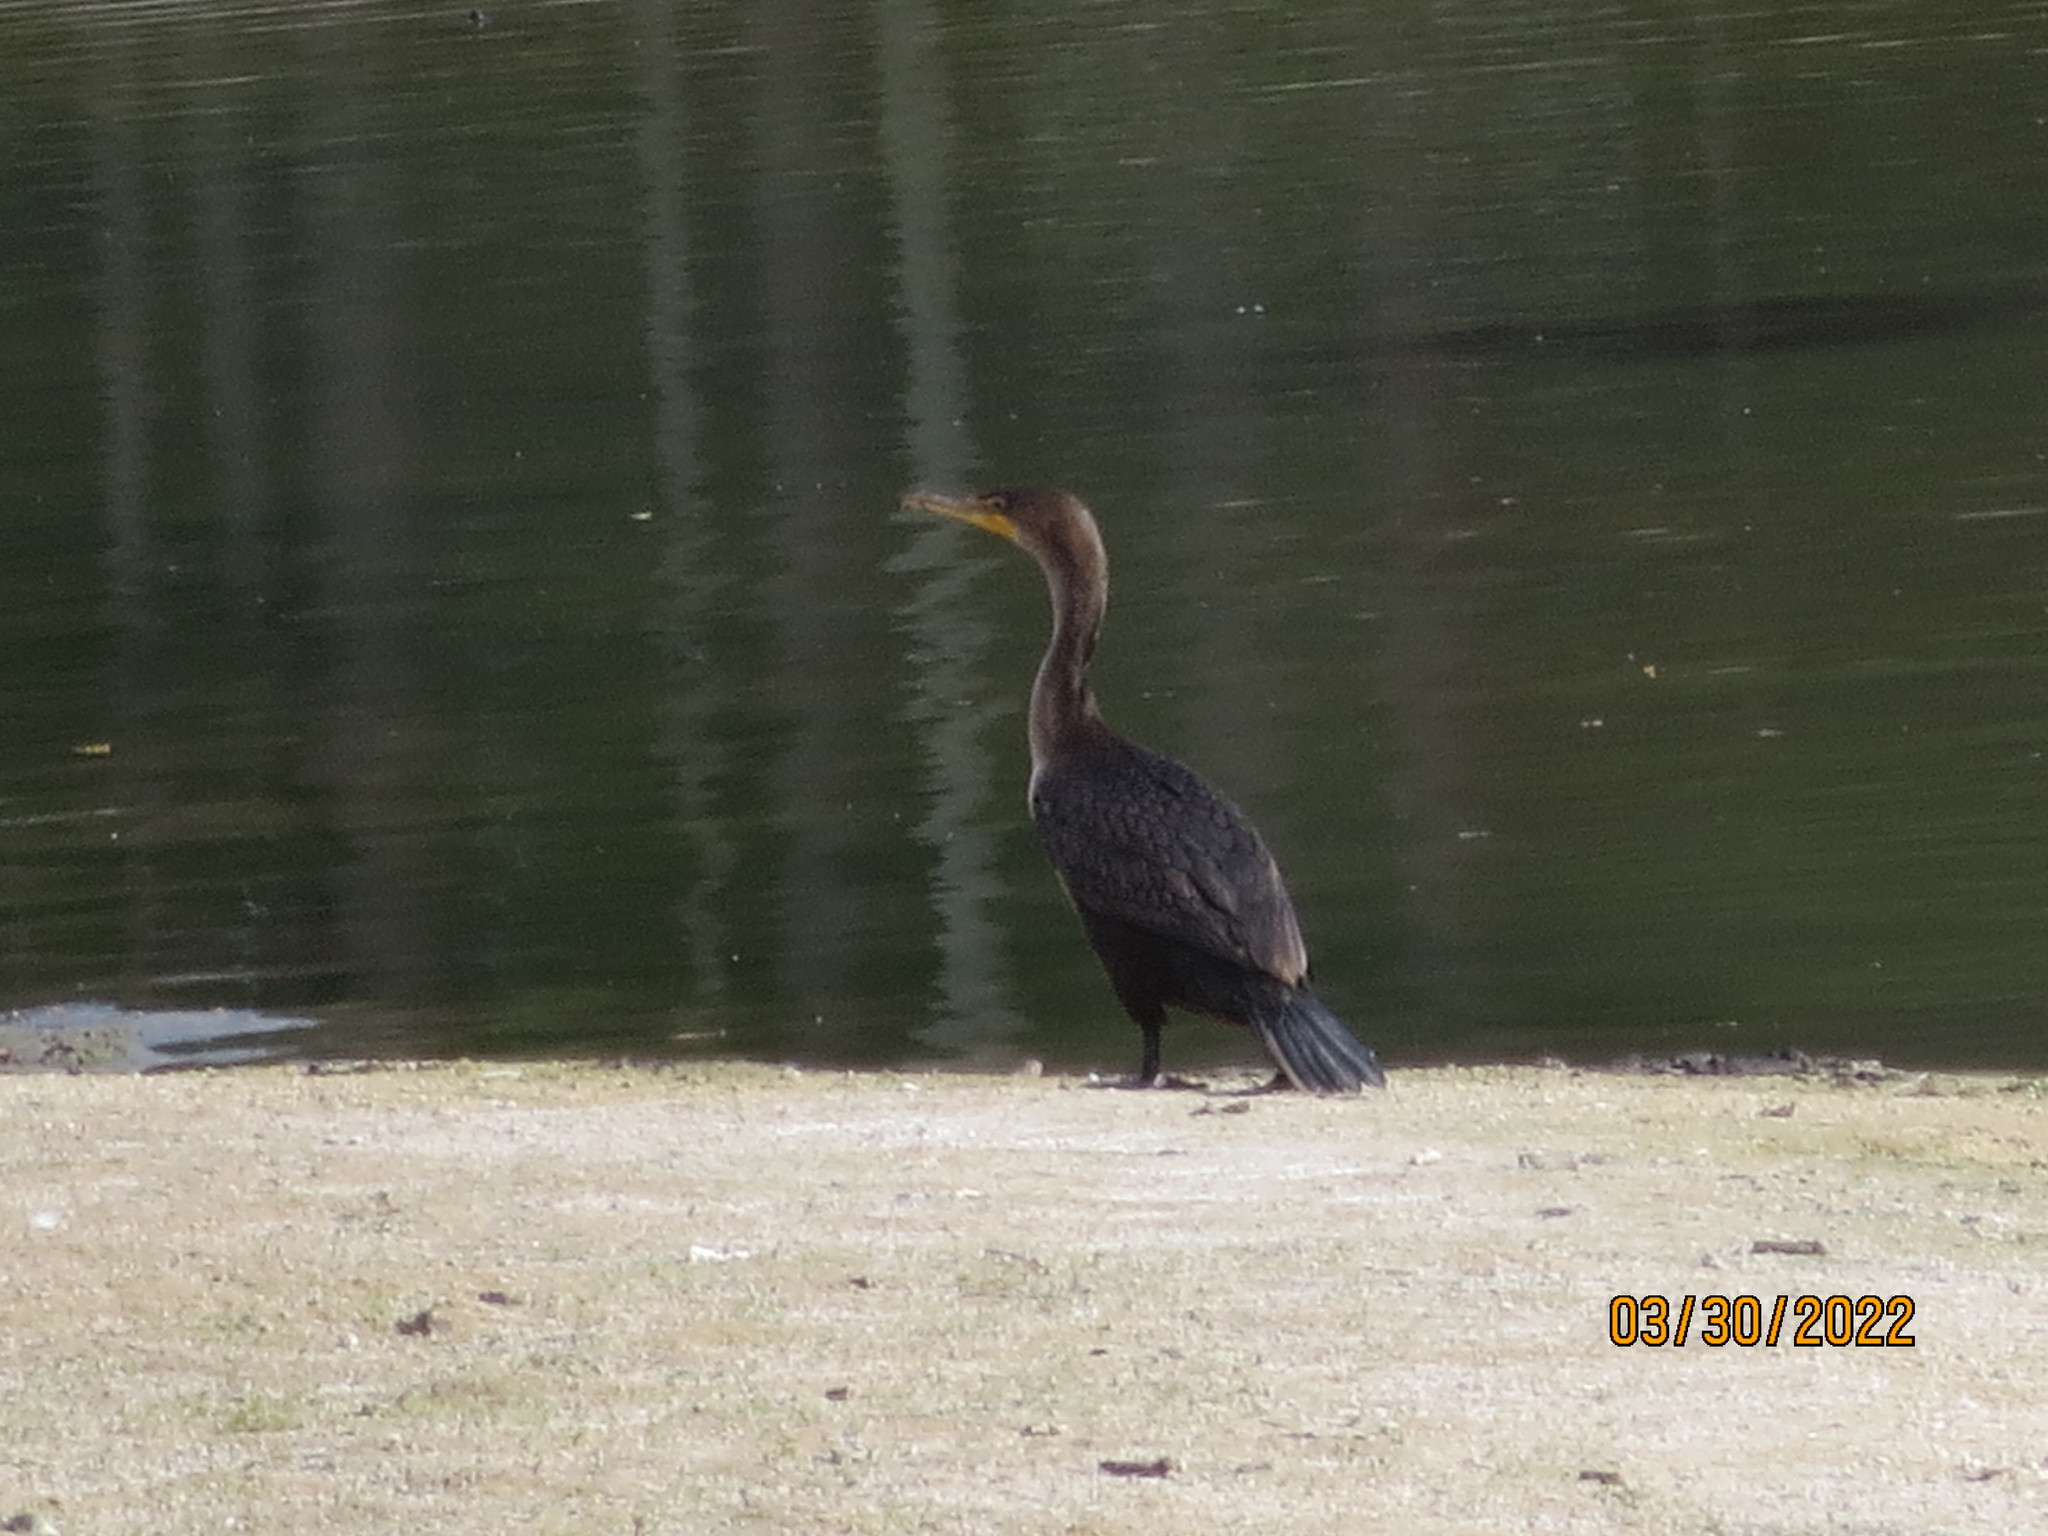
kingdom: Animalia
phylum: Chordata
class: Aves
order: Suliformes
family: Phalacrocoracidae
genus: Phalacrocorax
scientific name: Phalacrocorax auritus
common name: Double-crested cormorant
